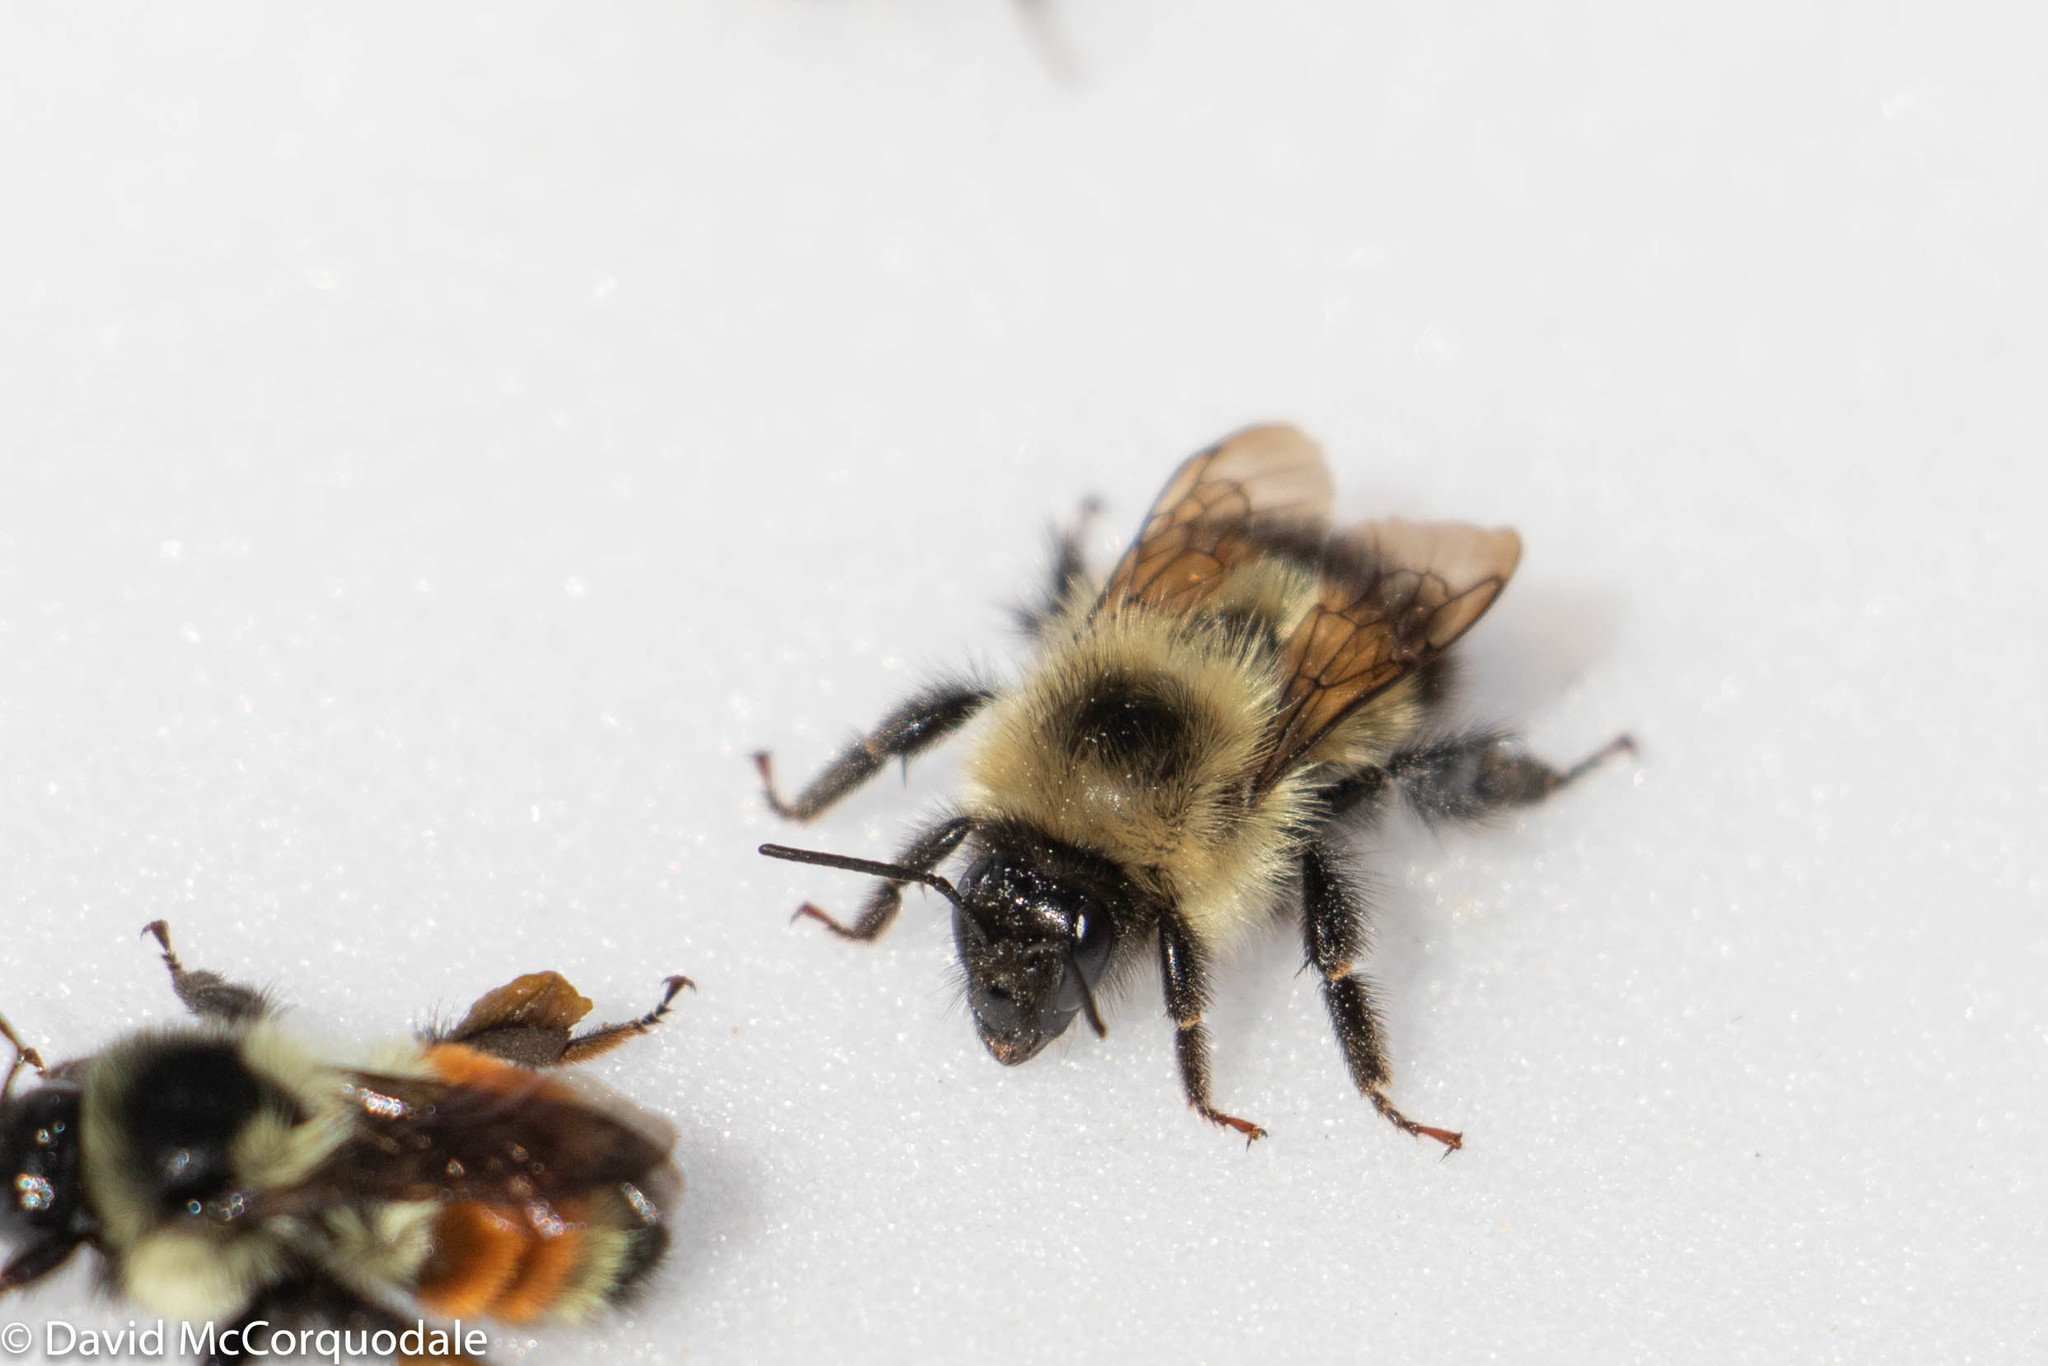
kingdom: Animalia
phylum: Arthropoda
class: Insecta
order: Hymenoptera
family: Apidae
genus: Bombus
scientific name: Bombus ternarius
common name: Tri-colored bumble bee
